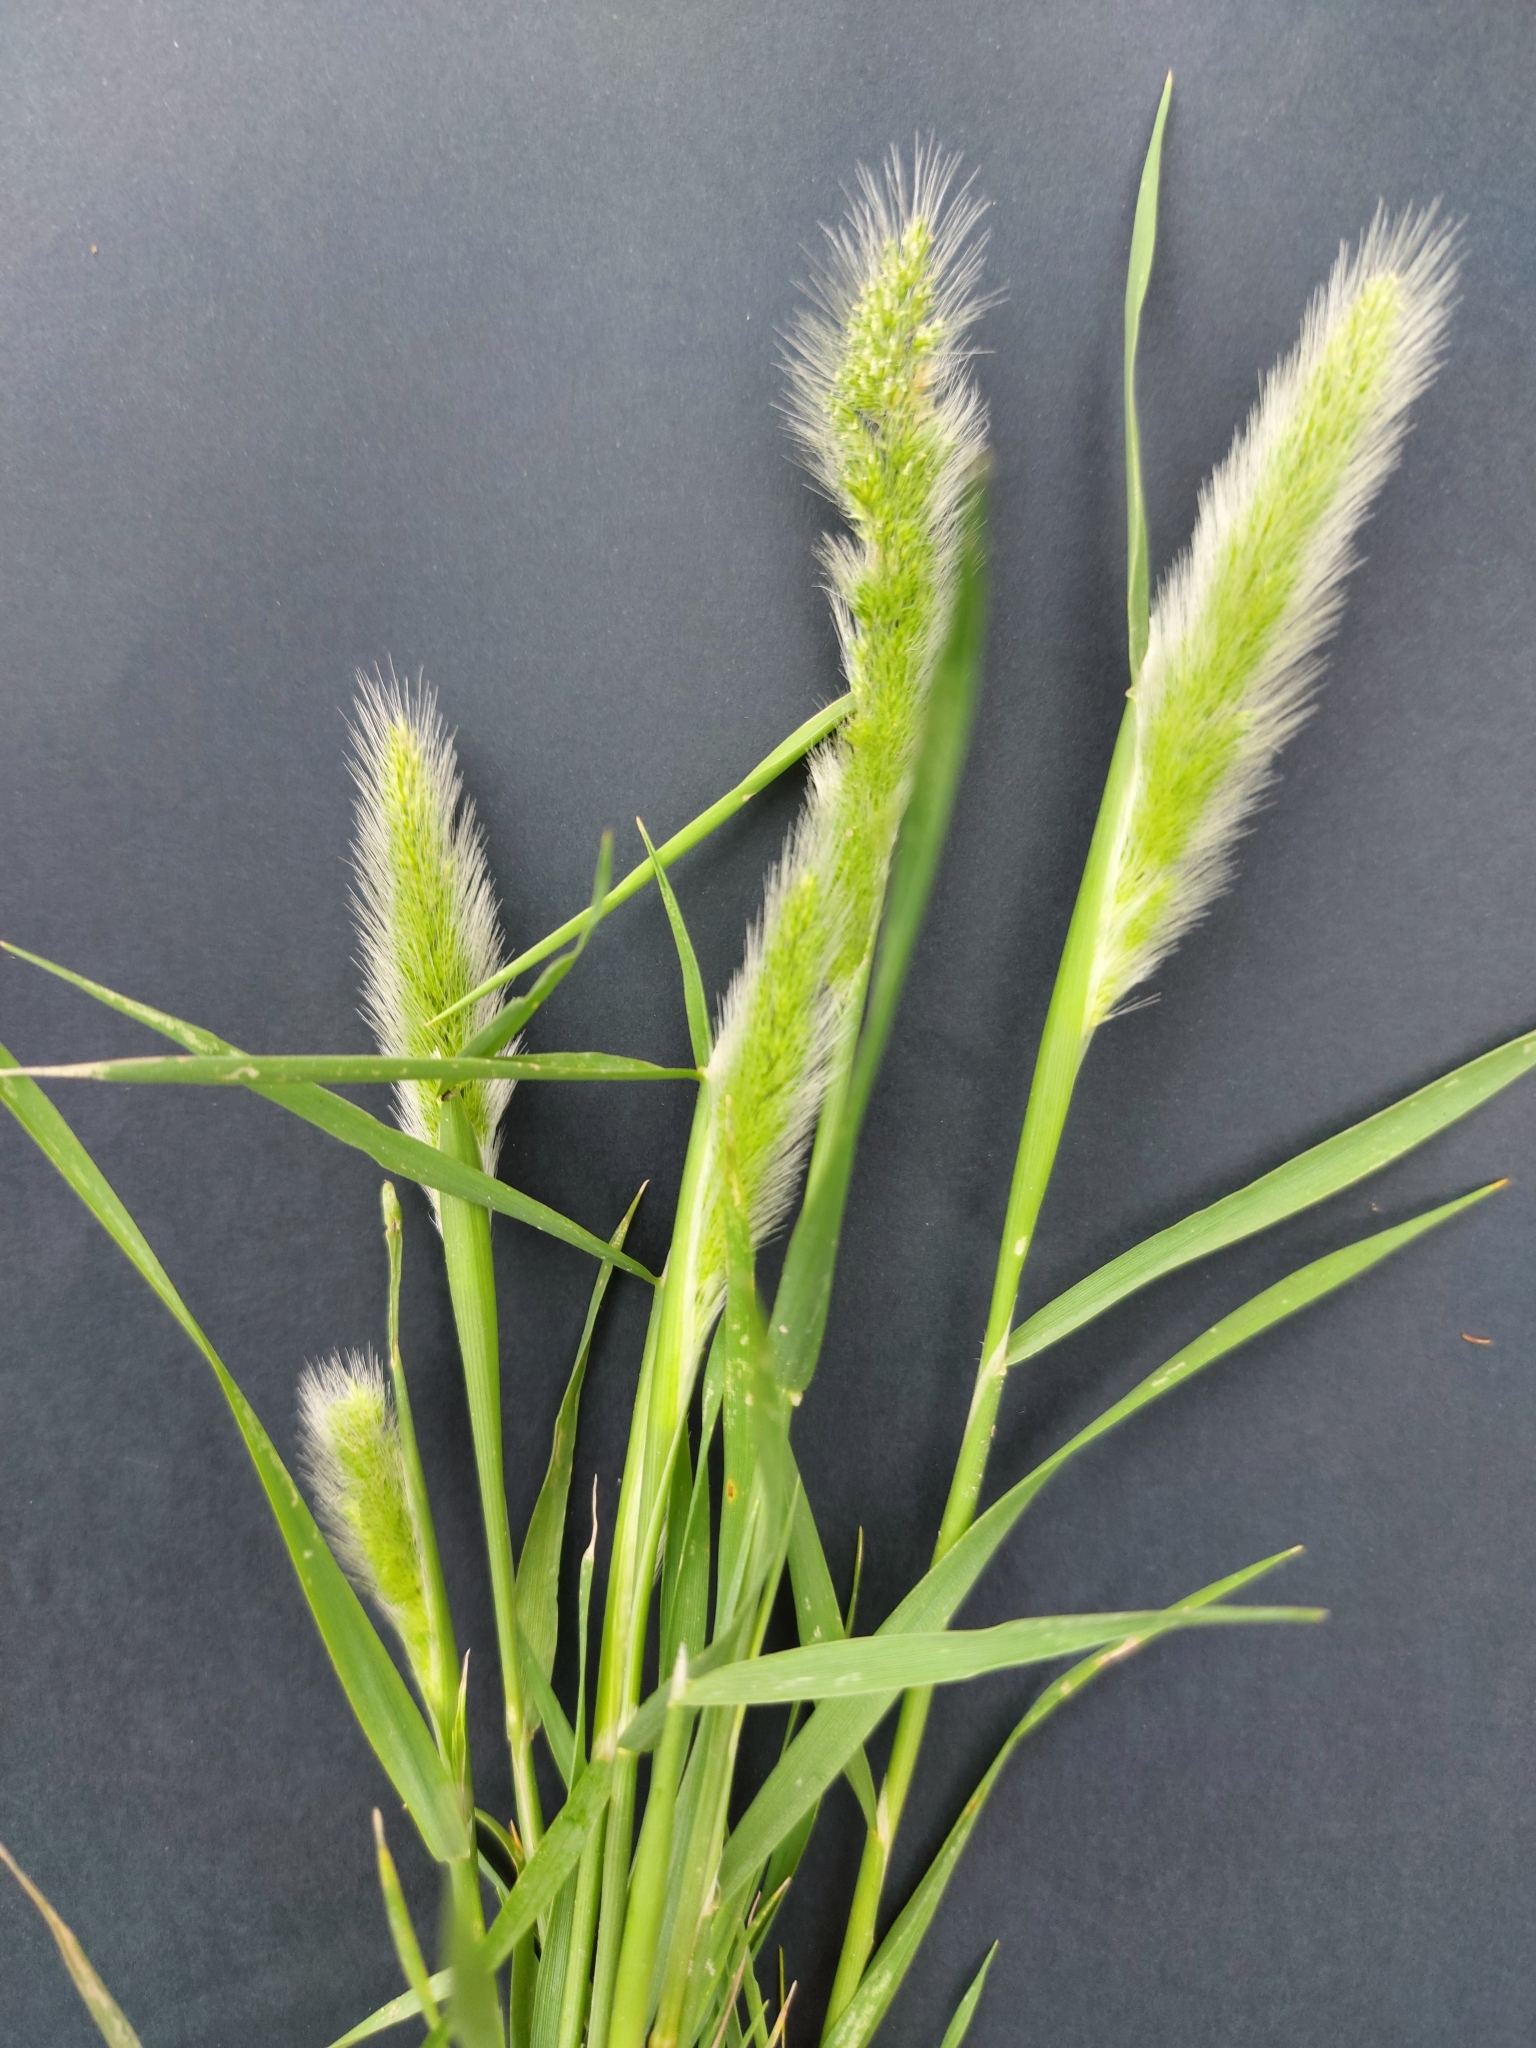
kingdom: Plantae
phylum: Tracheophyta
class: Liliopsida
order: Poales
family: Poaceae
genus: Polypogon
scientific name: Polypogon monspeliensis
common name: Annual rabbitsfoot grass
